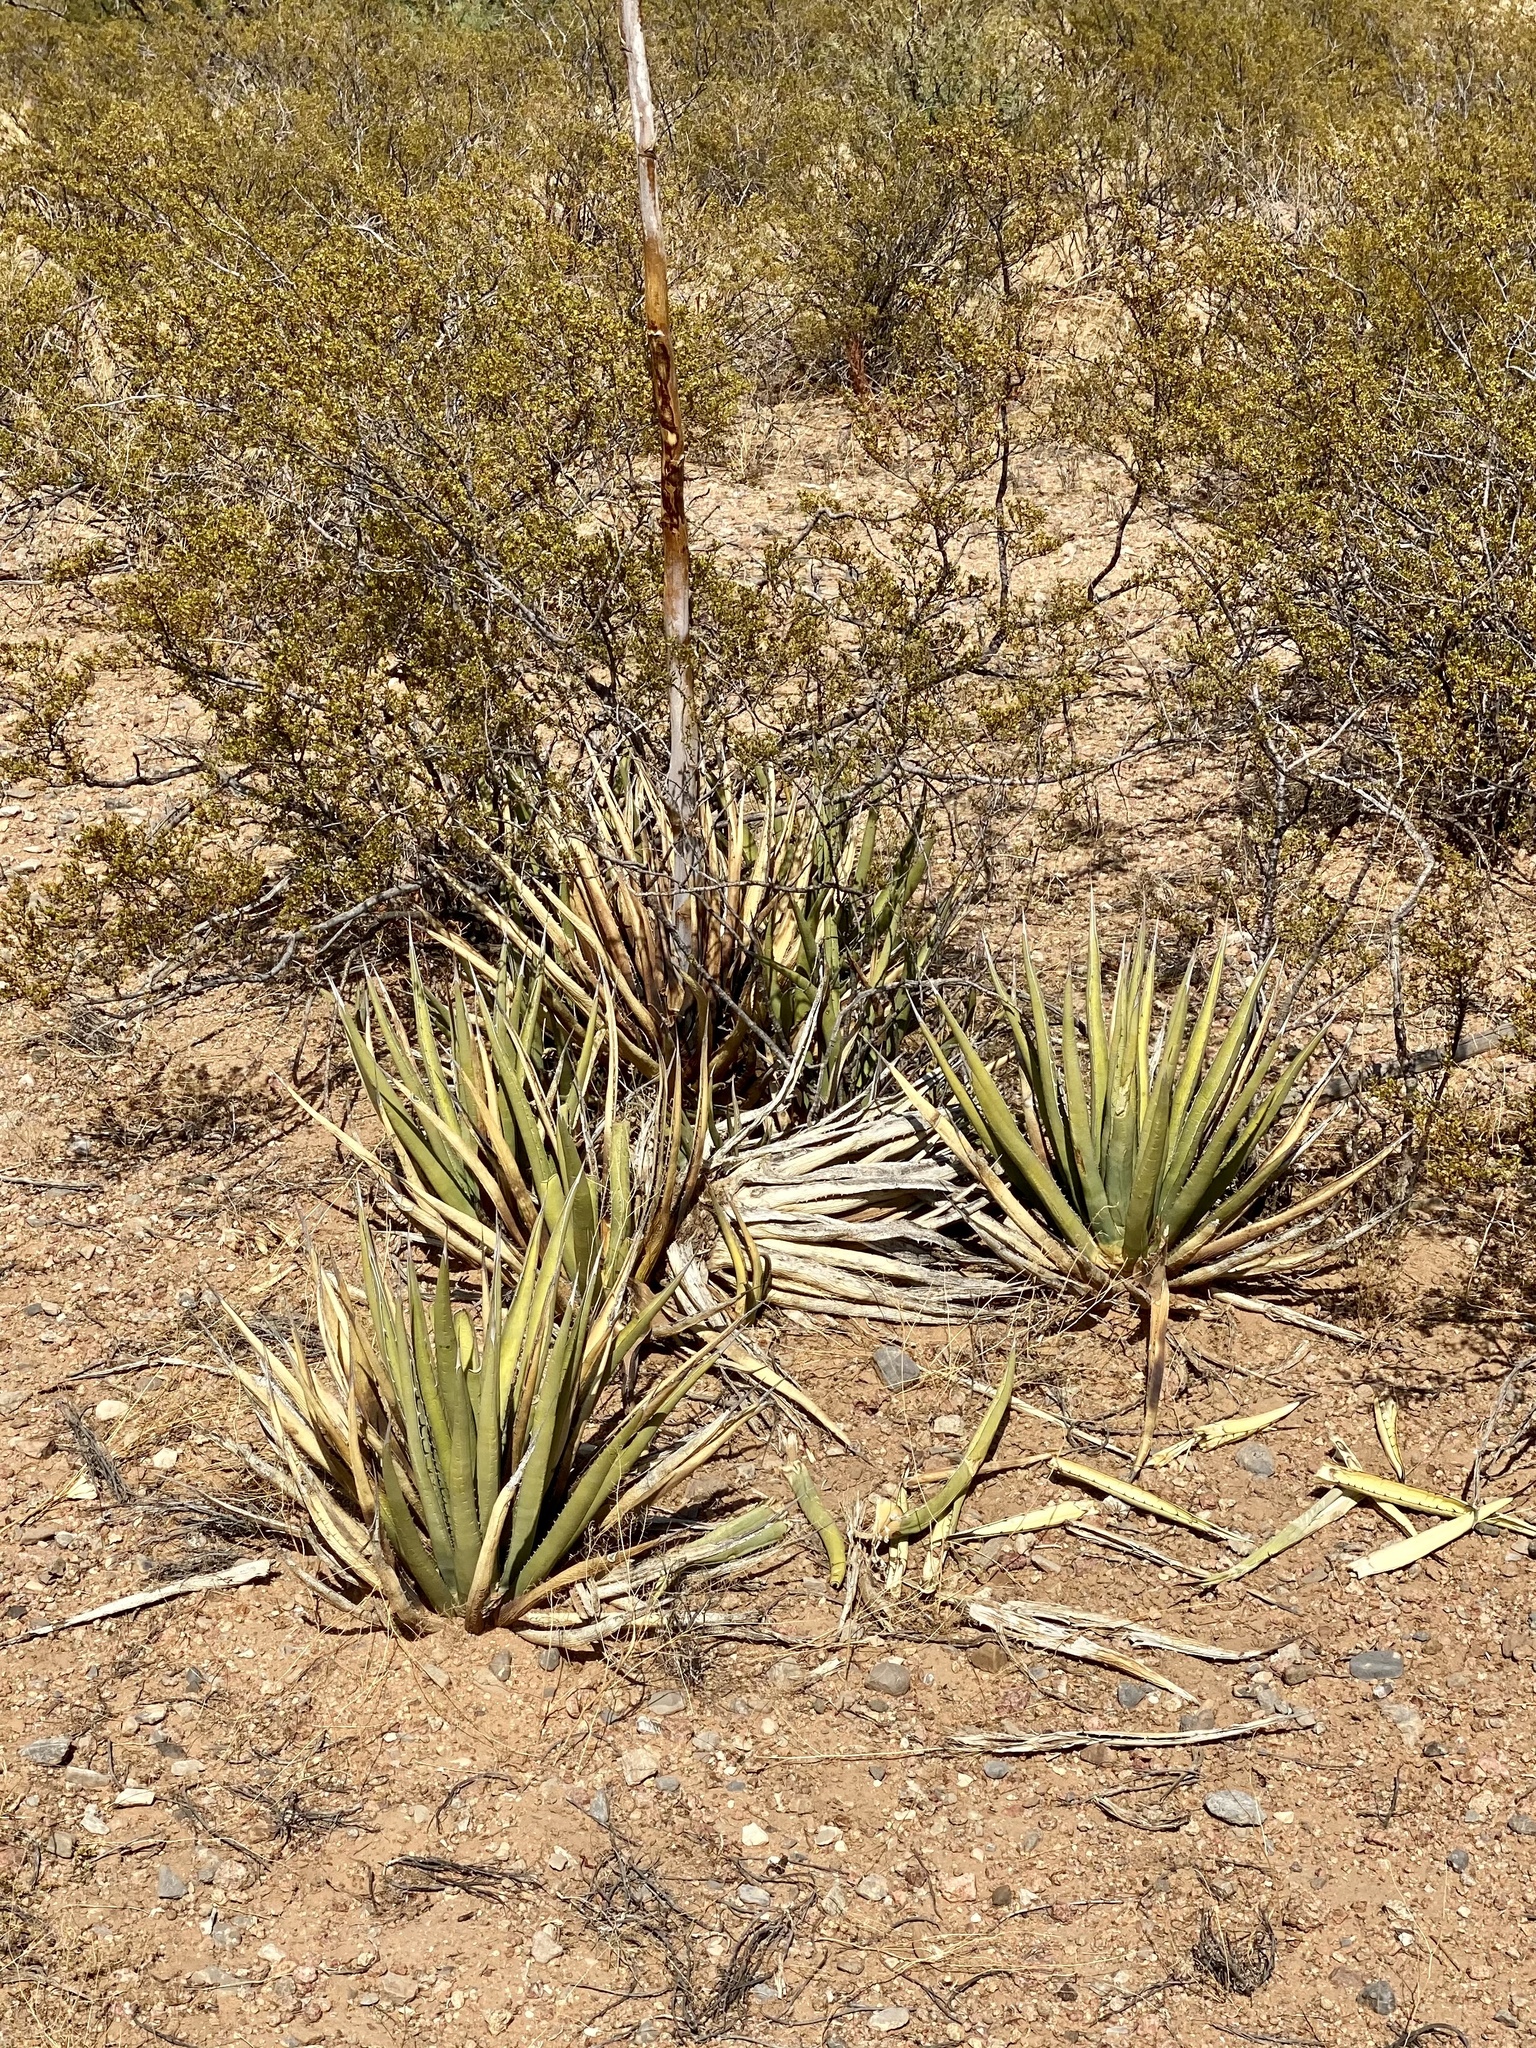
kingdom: Plantae
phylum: Tracheophyta
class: Liliopsida
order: Asparagales
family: Asparagaceae
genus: Agave
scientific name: Agave lechuguilla
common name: Lecheguilla agave
